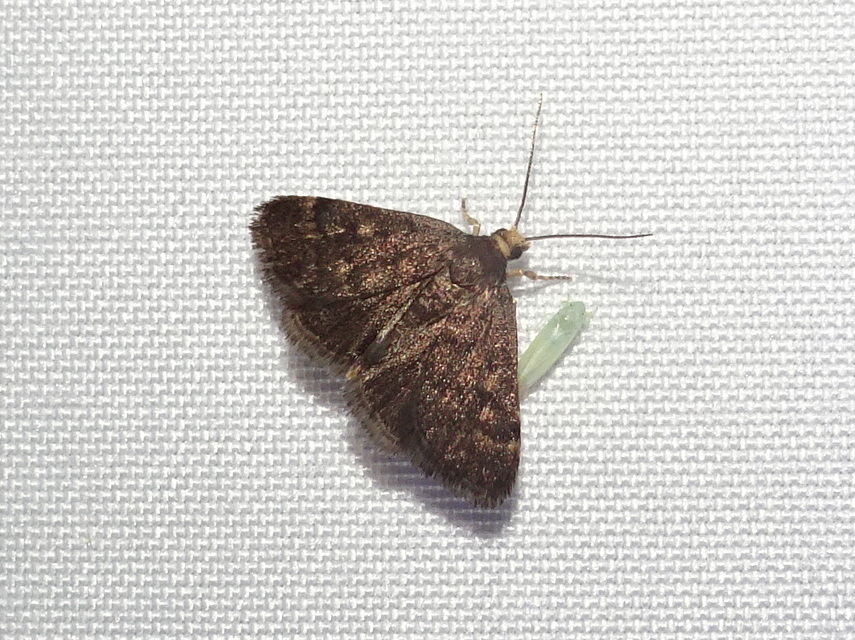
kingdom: Animalia
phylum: Arthropoda
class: Insecta
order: Lepidoptera
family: Crambidae
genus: Pyrausta
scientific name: Pyrausta merrickalis
